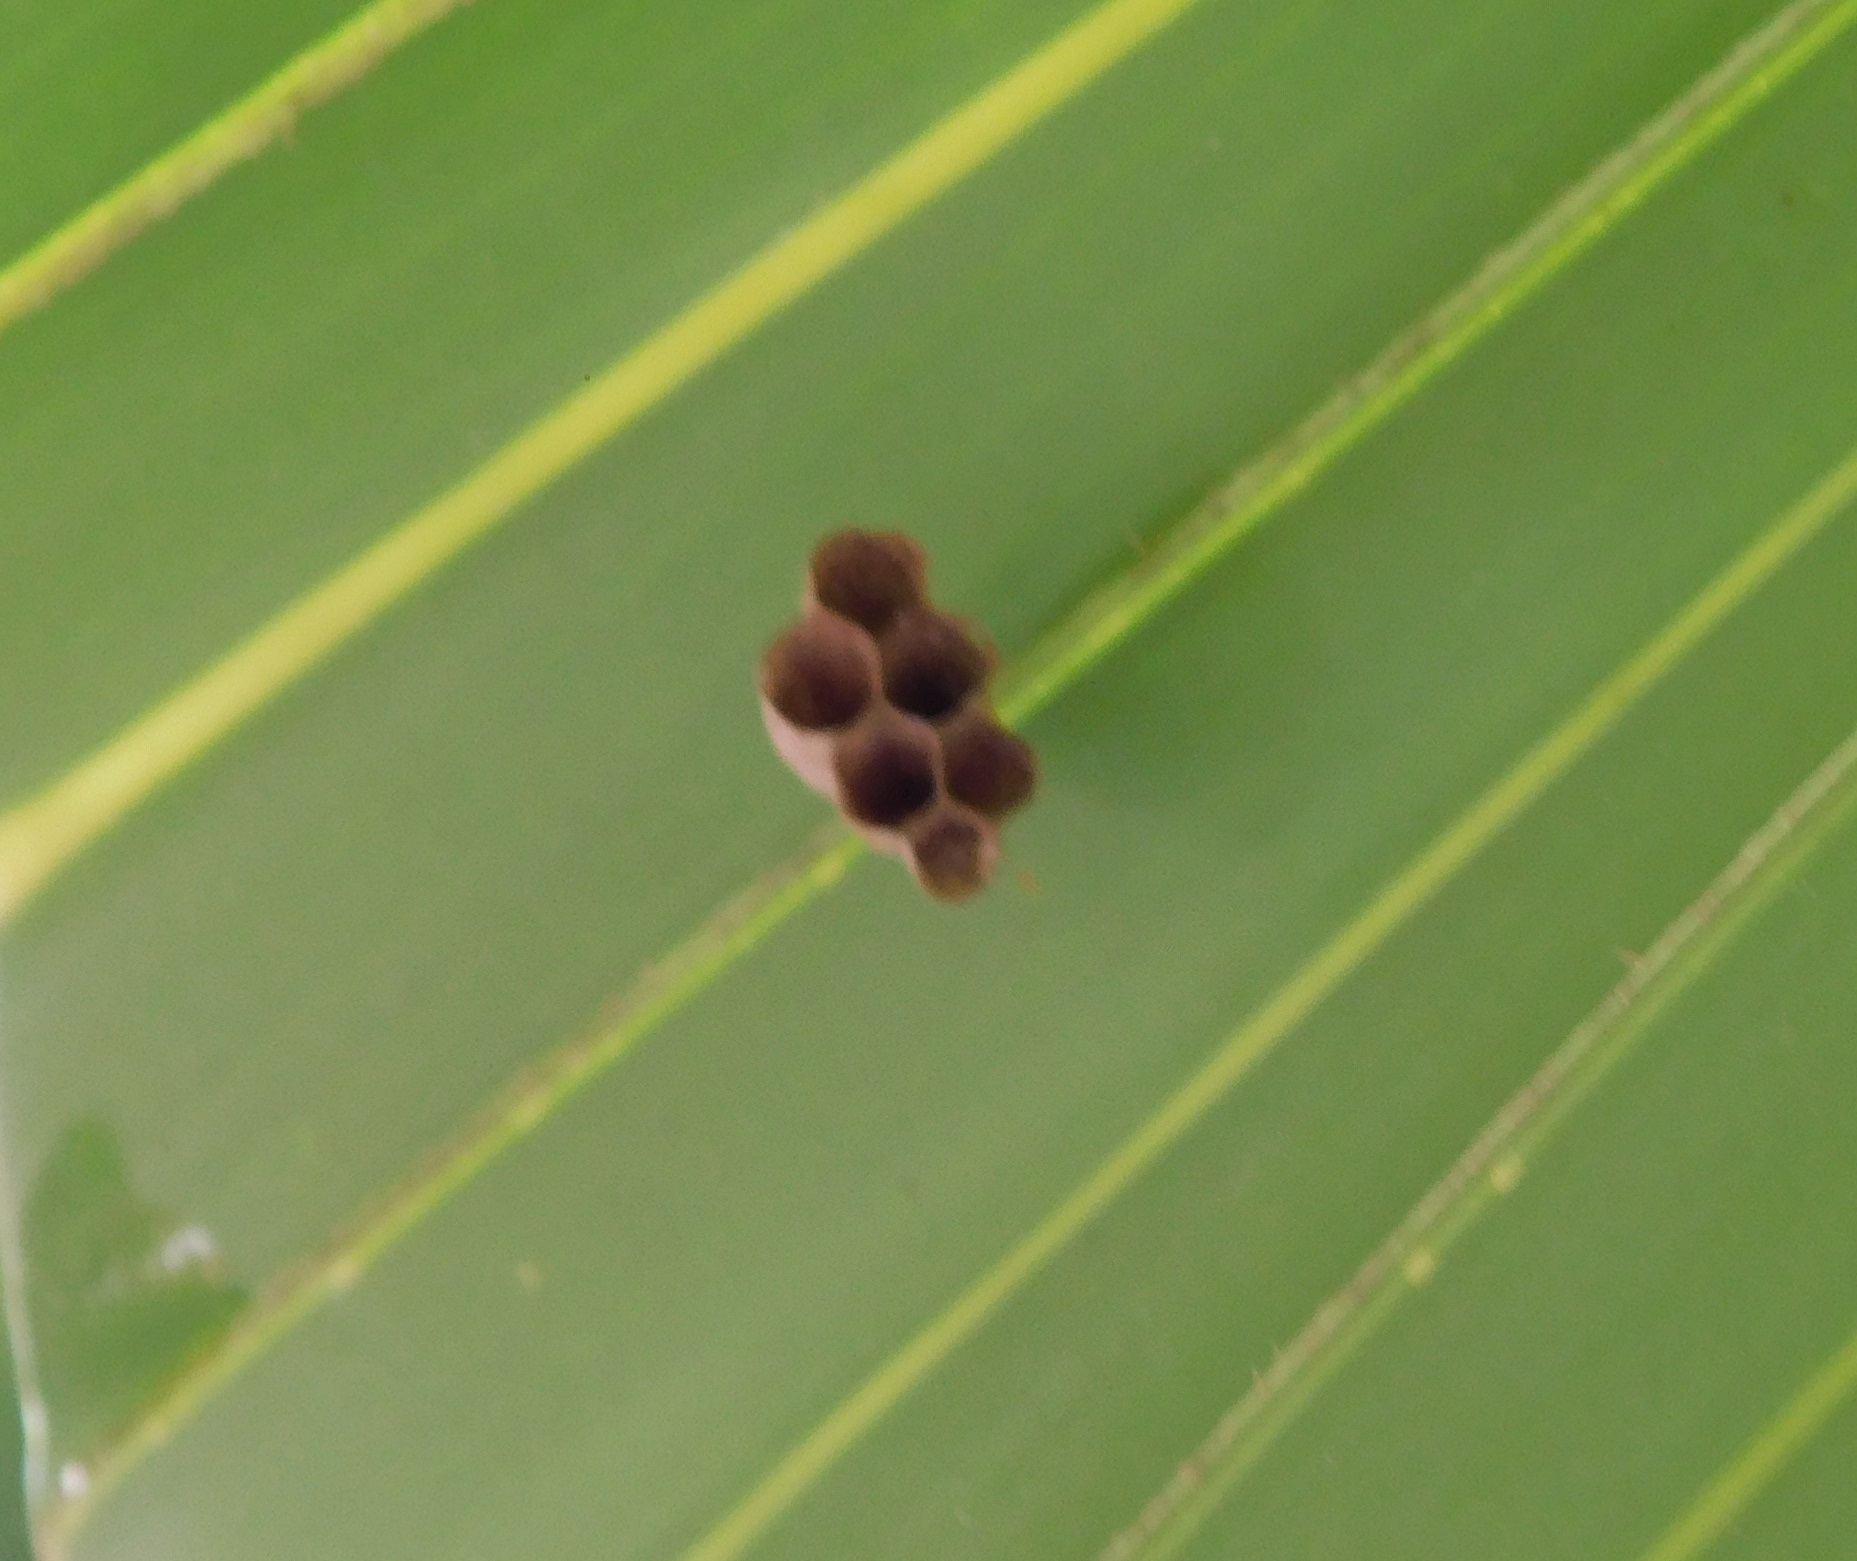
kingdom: Animalia
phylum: Arthropoda
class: Insecta
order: Hymenoptera
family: Vespidae
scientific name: Vespidae
